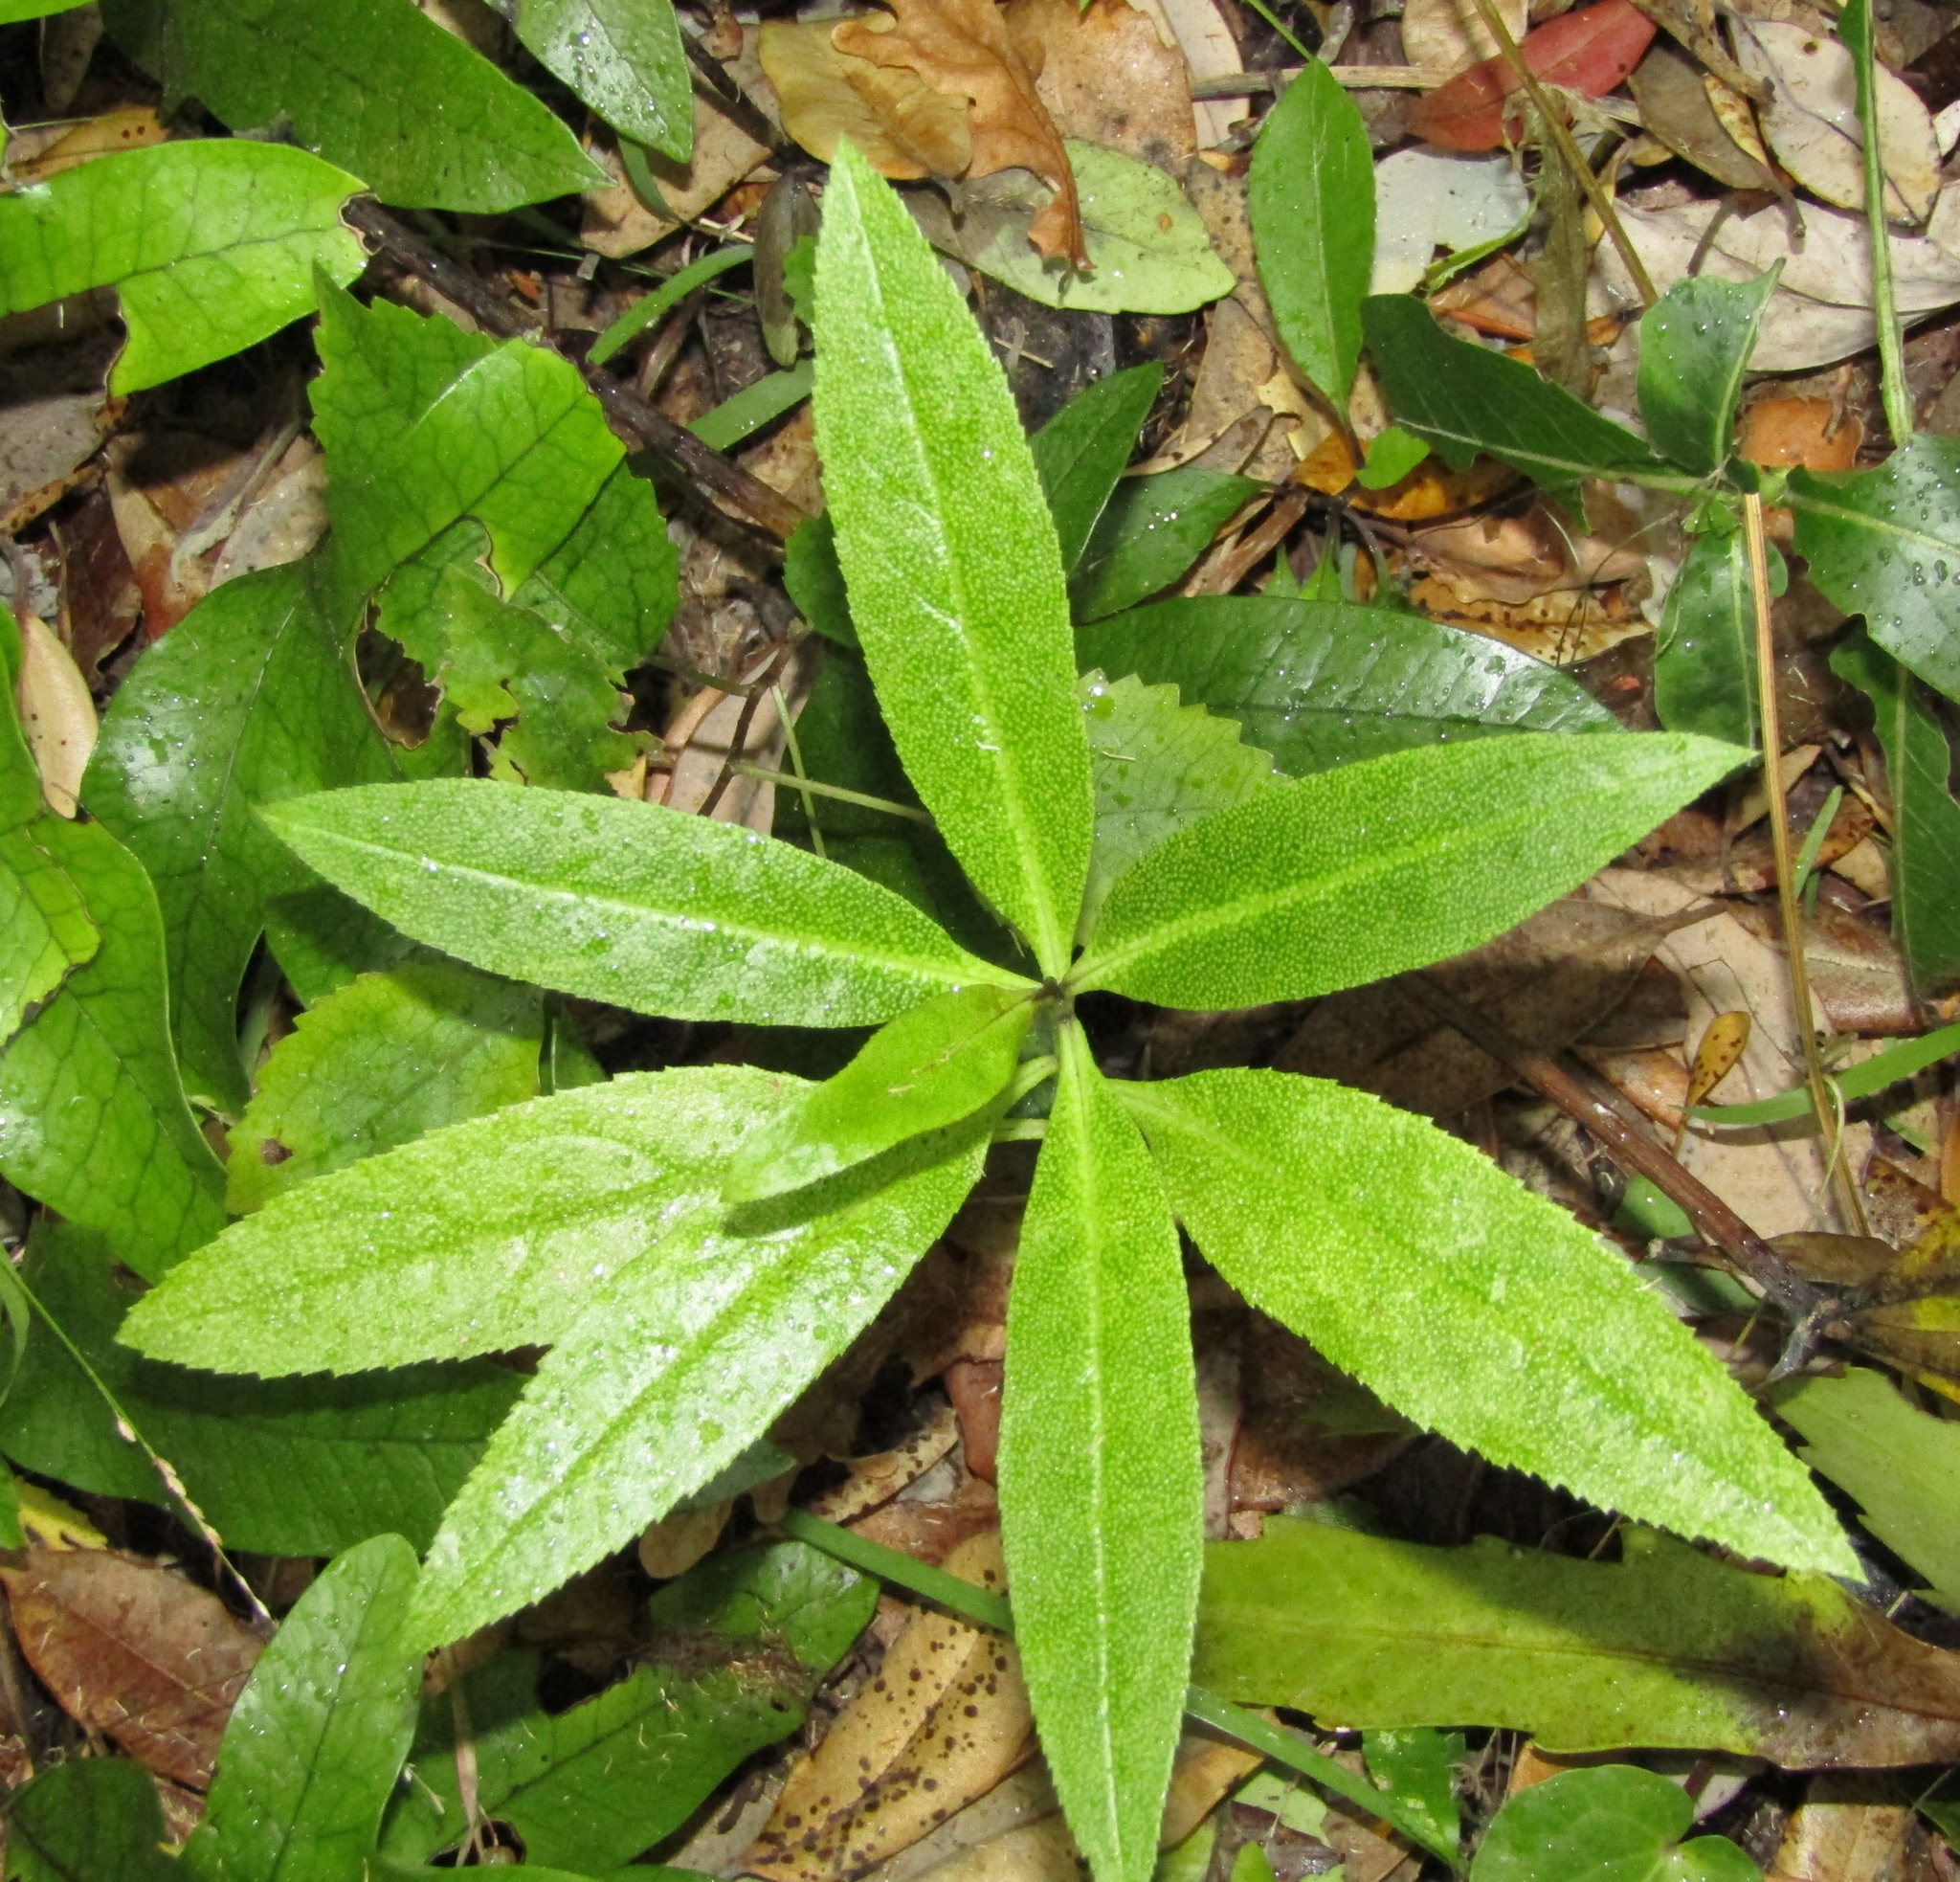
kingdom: Plantae
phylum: Tracheophyta
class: Magnoliopsida
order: Lamiales
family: Scrophulariaceae
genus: Myoporum
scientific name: Myoporum laetum
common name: Ngaio tree
